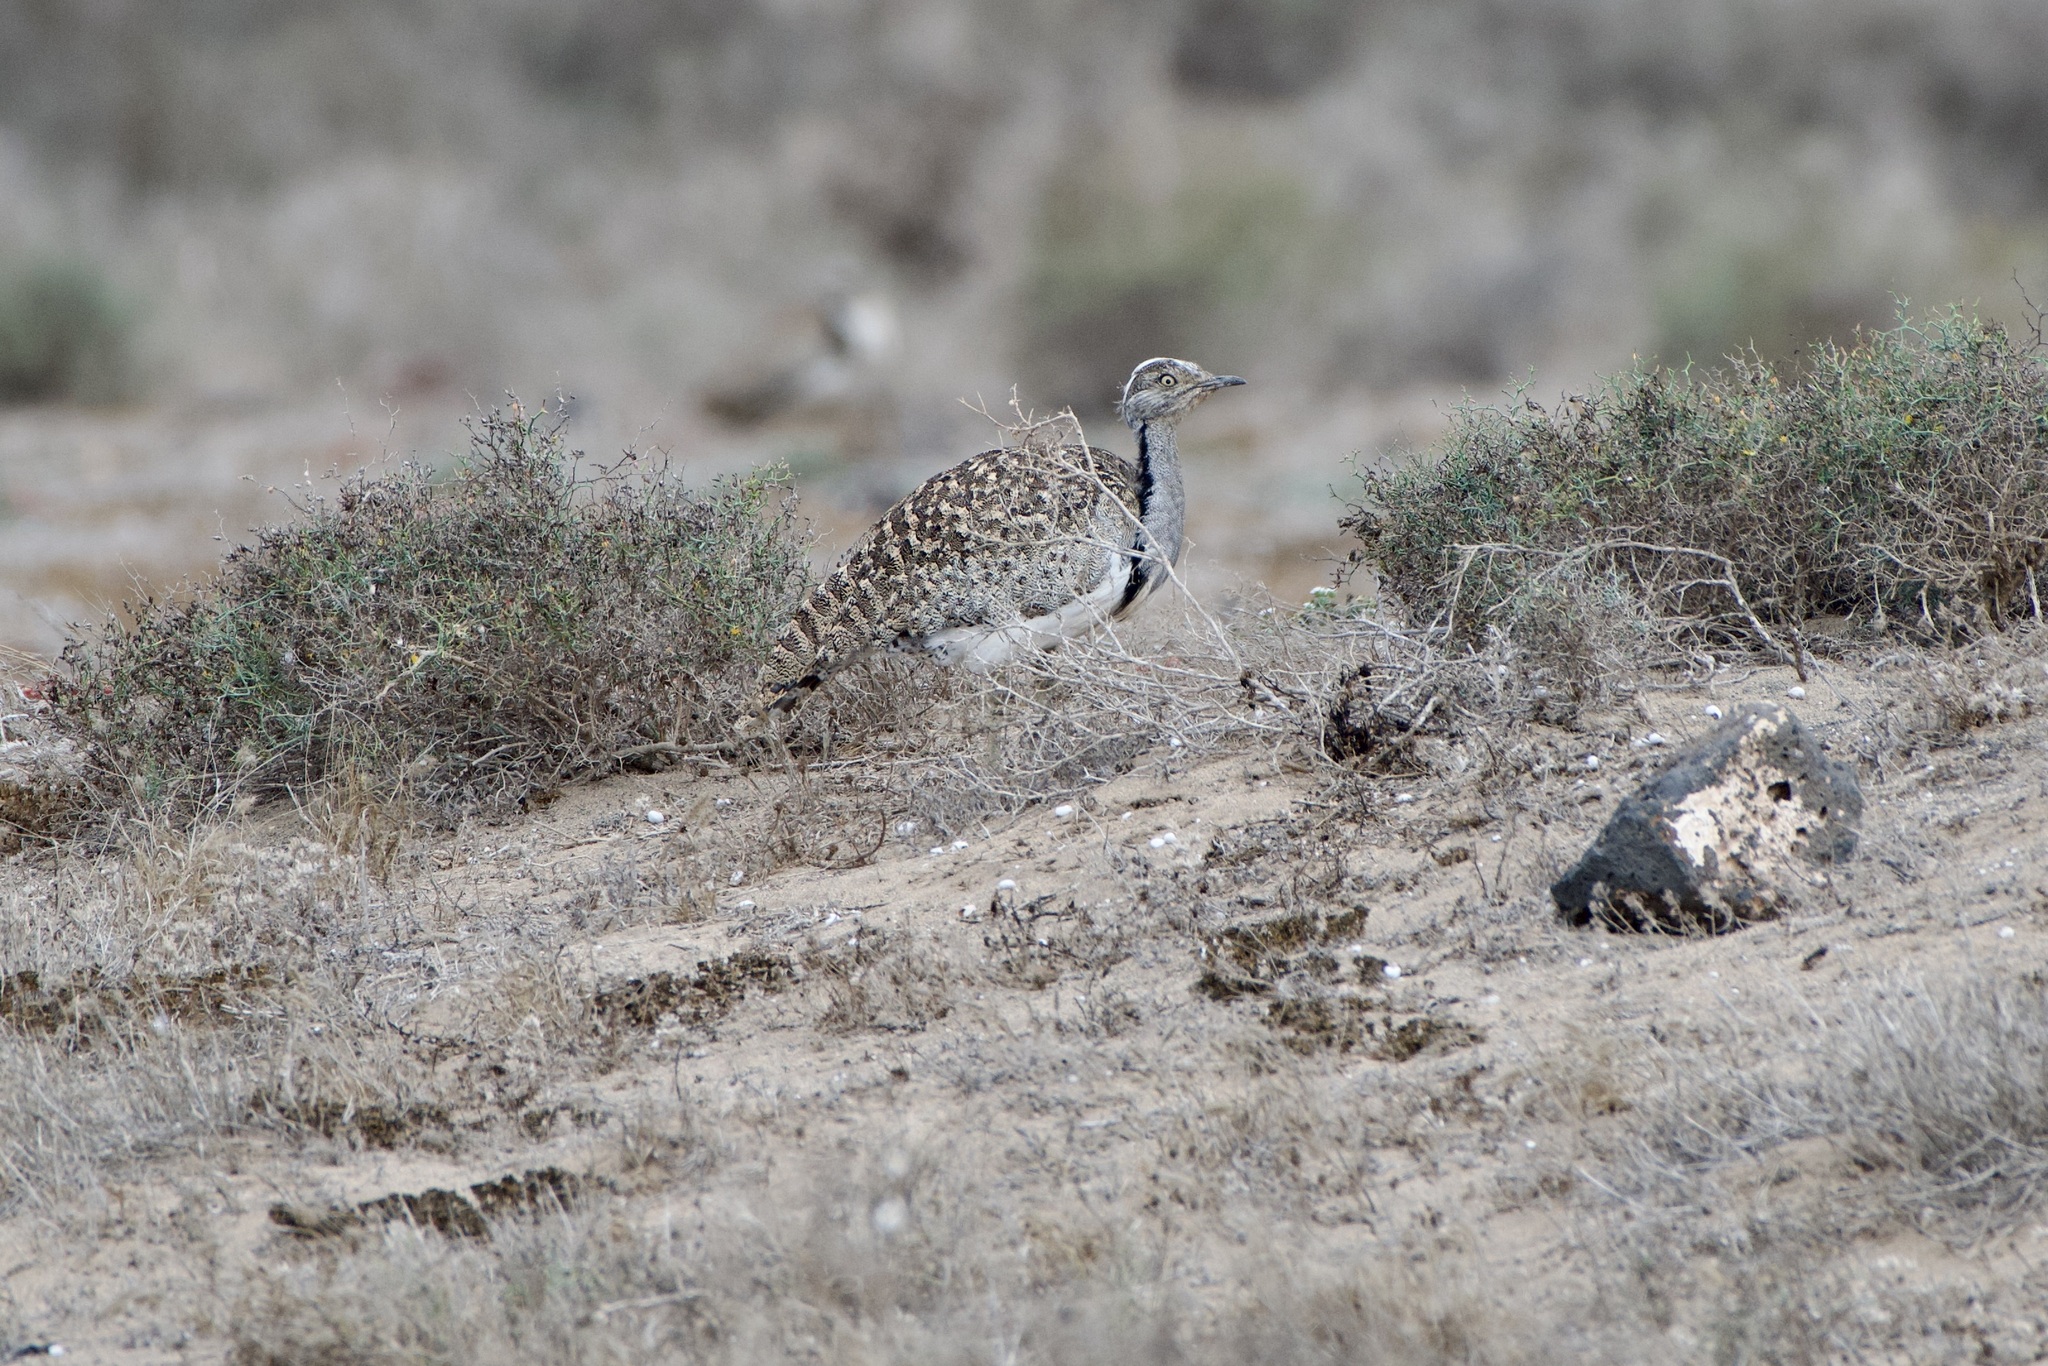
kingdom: Animalia
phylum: Chordata
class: Aves
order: Otidiformes
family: Otididae
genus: Chlamydotis
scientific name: Chlamydotis undulata
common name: Houbara bustard
